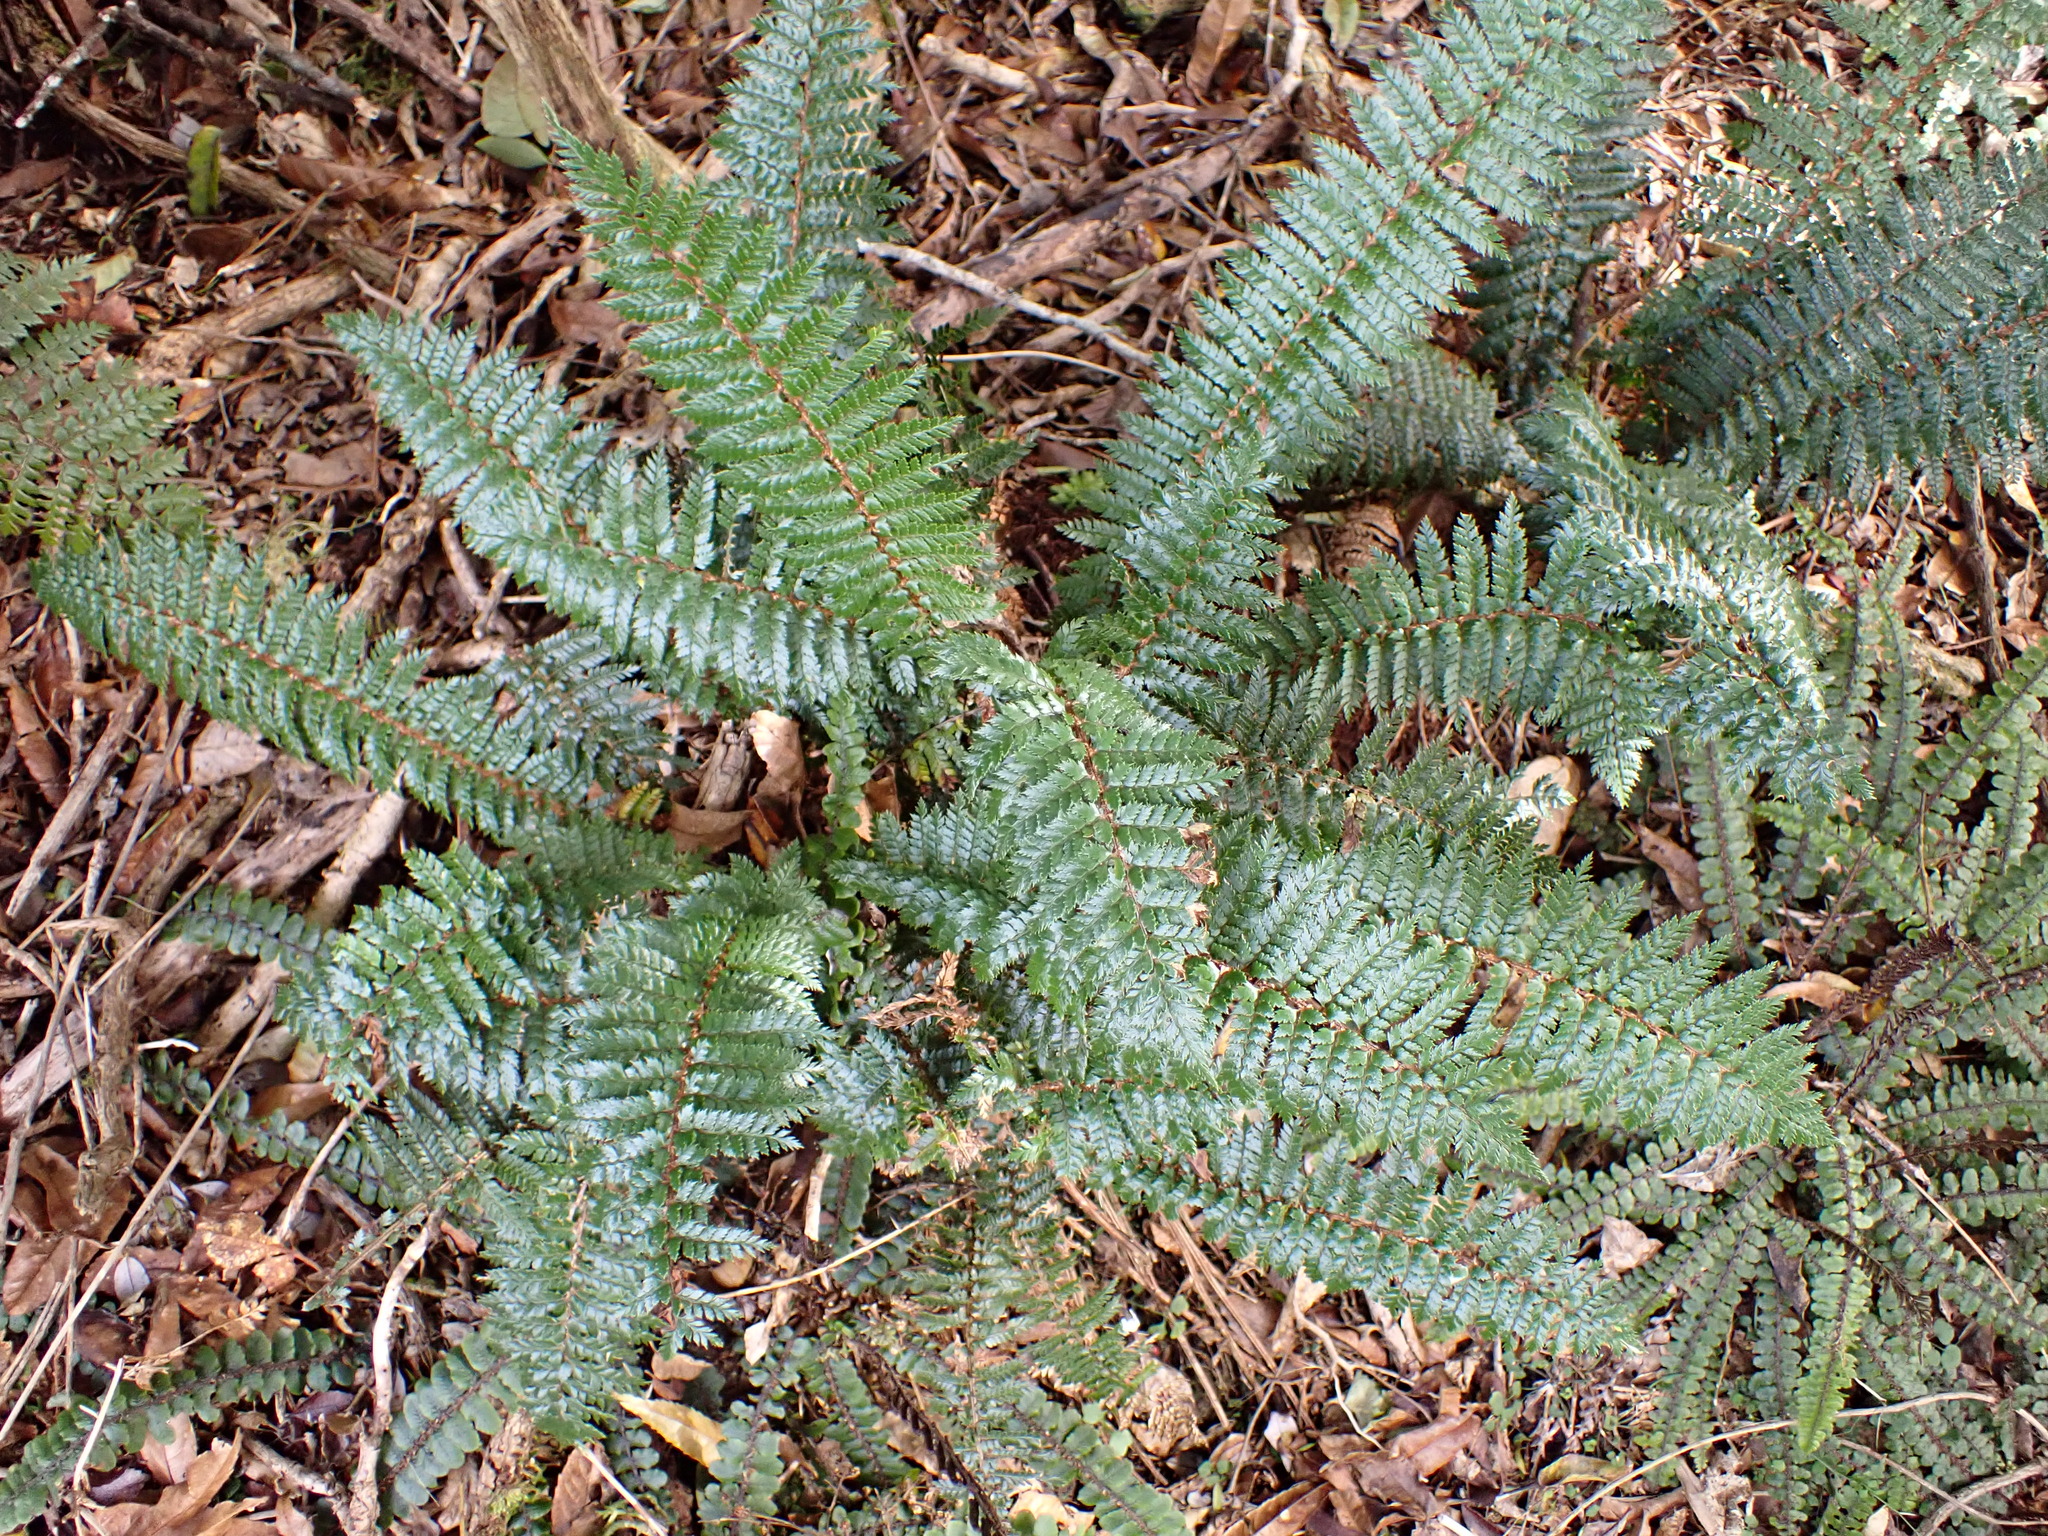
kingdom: Plantae
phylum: Tracheophyta
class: Polypodiopsida
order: Polypodiales
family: Dryopteridaceae
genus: Polystichum
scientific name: Polystichum vestitum
